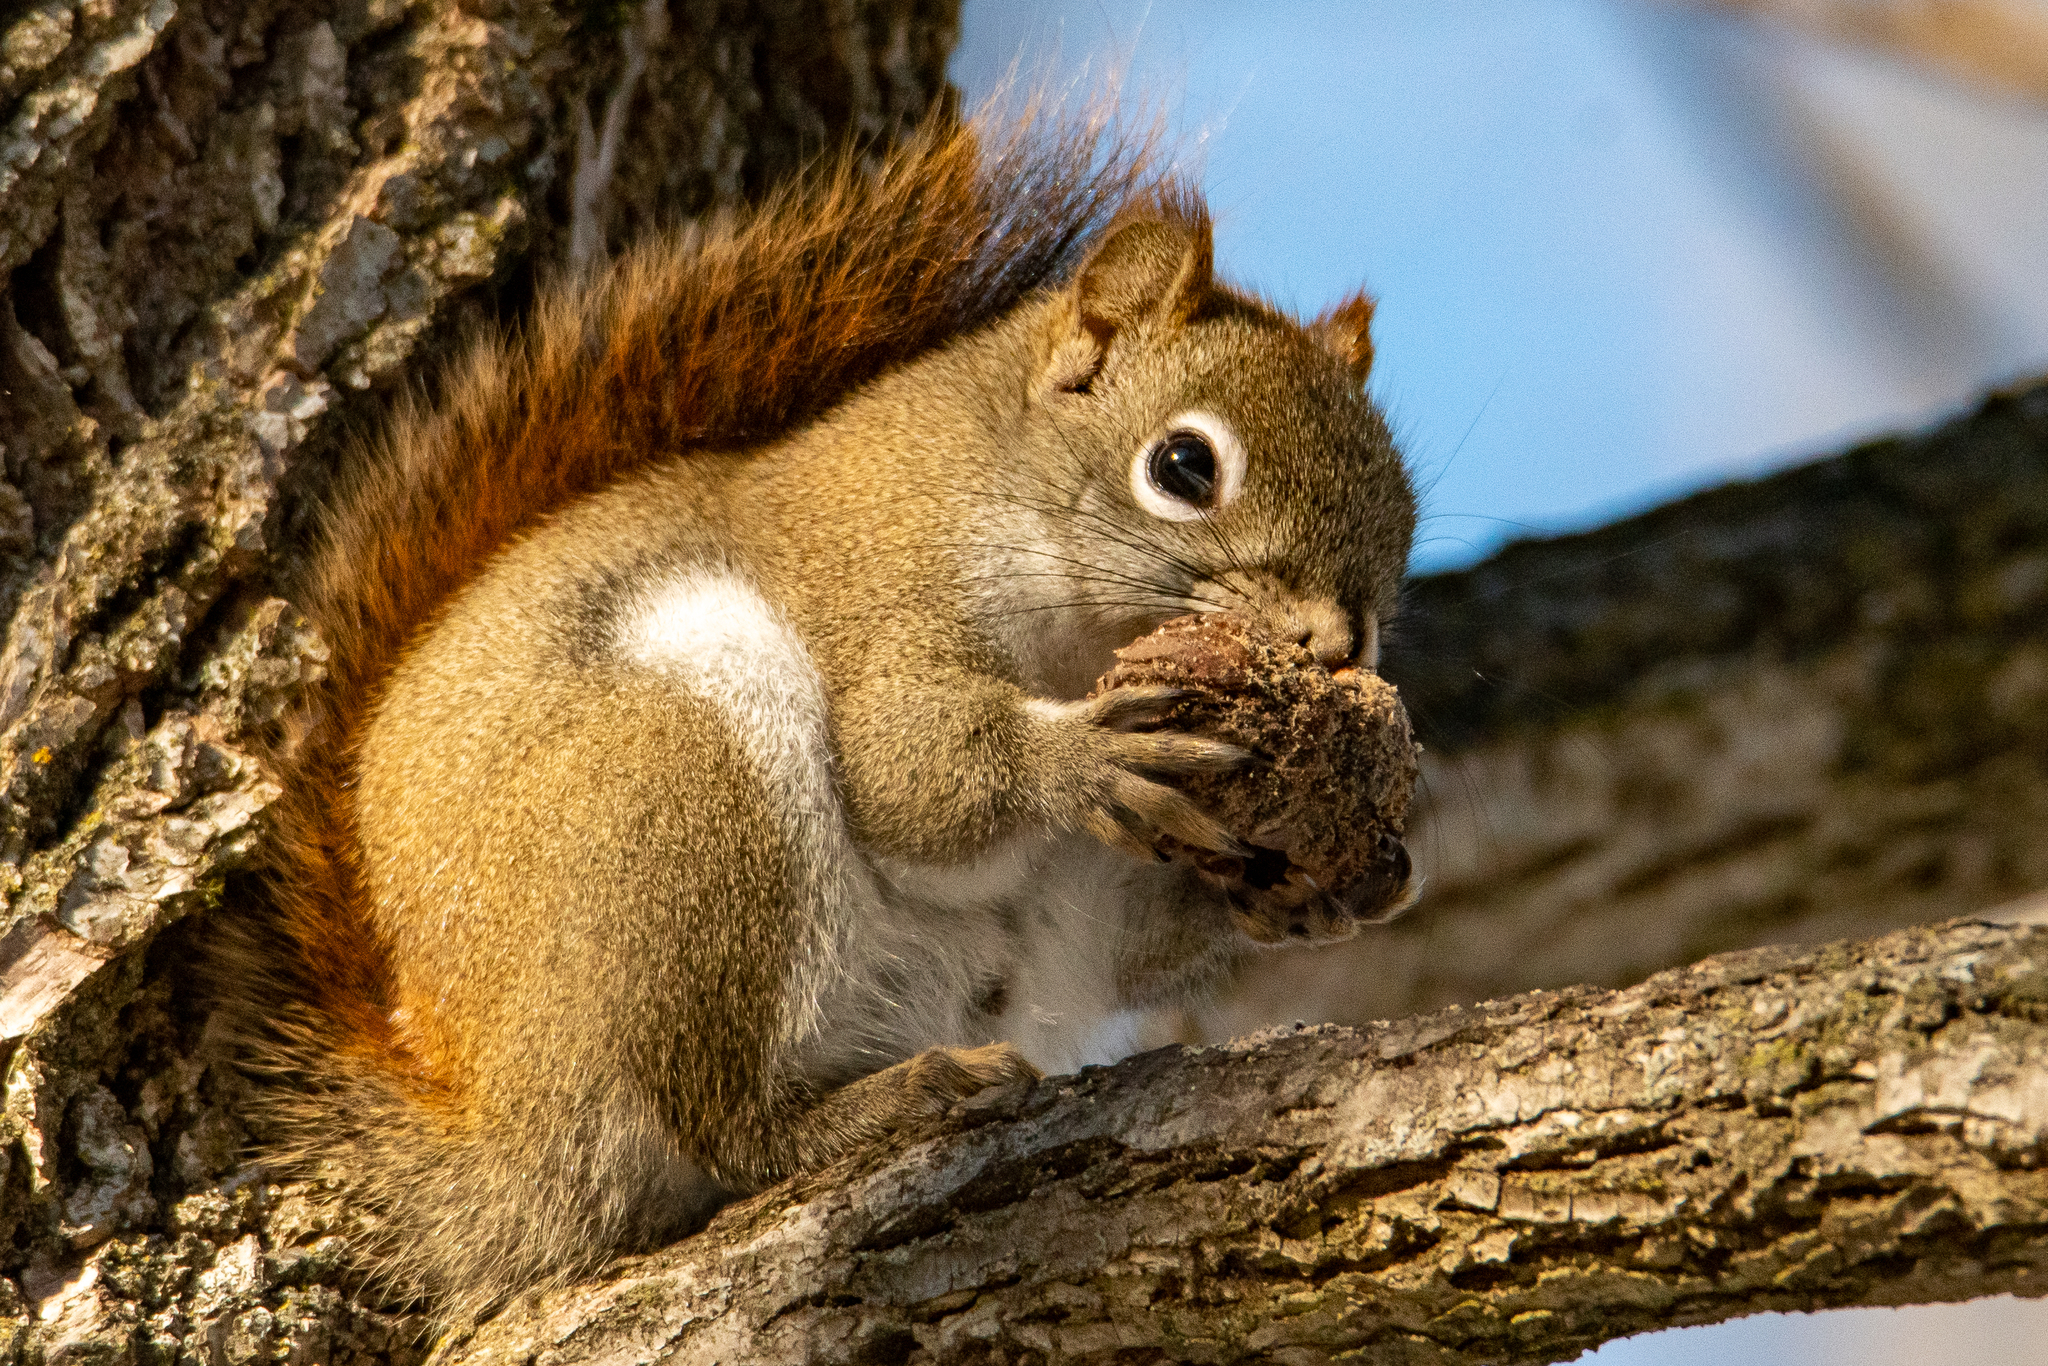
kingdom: Animalia
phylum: Chordata
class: Mammalia
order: Rodentia
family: Sciuridae
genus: Tamiasciurus
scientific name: Tamiasciurus hudsonicus
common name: Red squirrel
